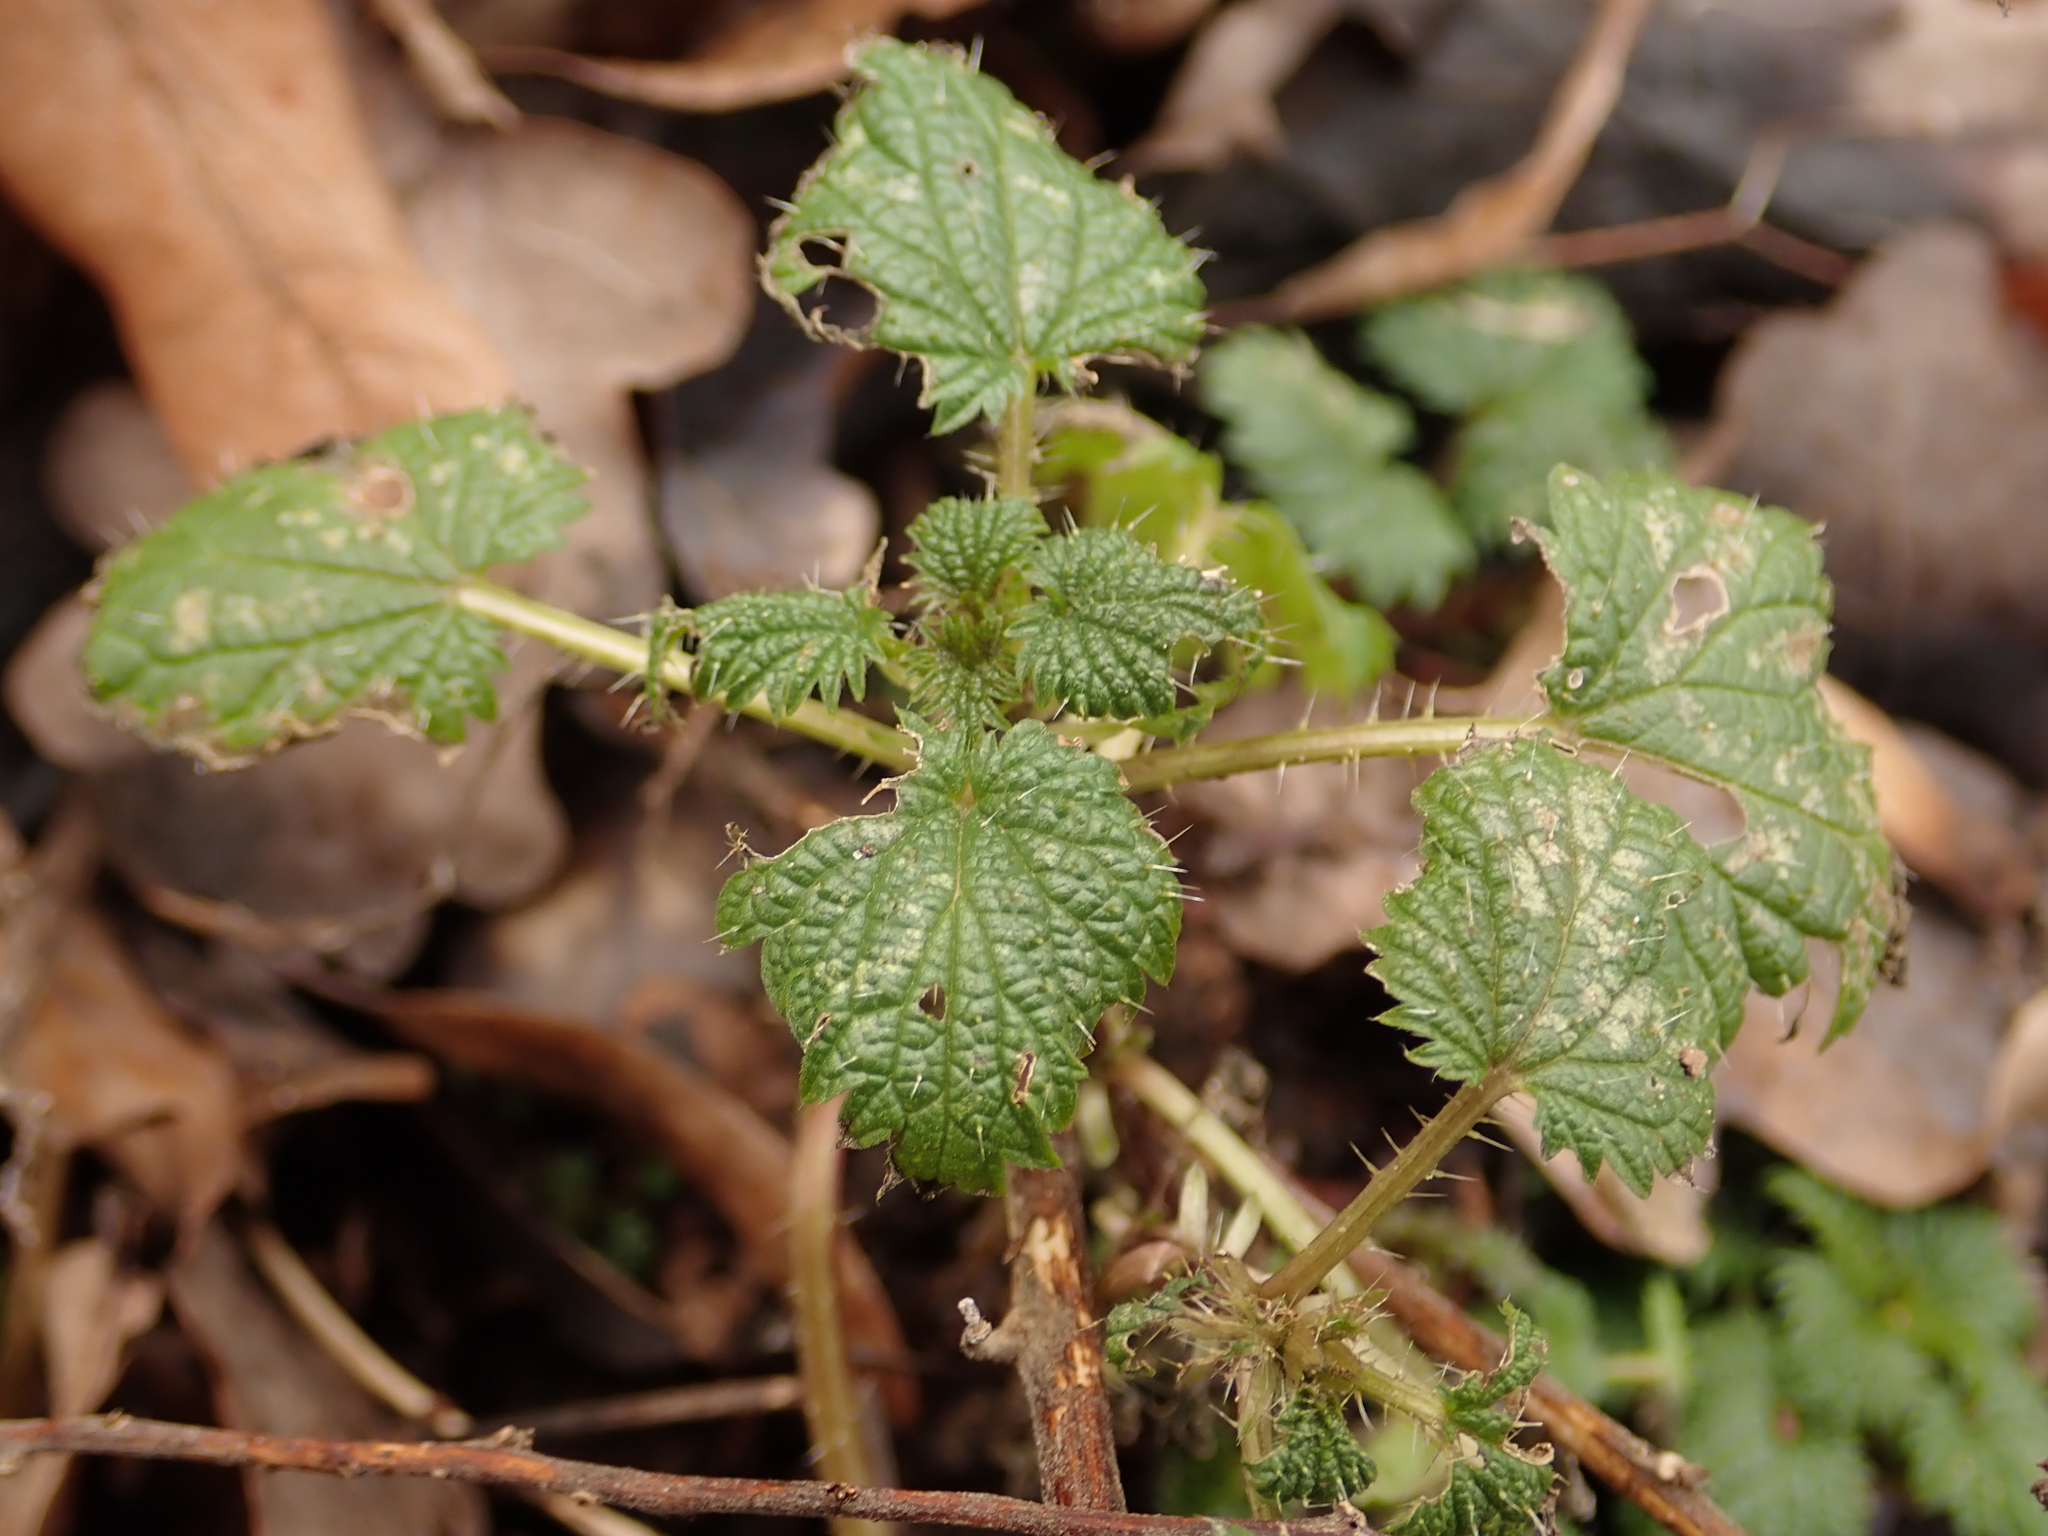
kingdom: Plantae
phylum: Tracheophyta
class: Magnoliopsida
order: Rosales
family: Urticaceae
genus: Urtica
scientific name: Urtica dioica
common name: Common nettle
